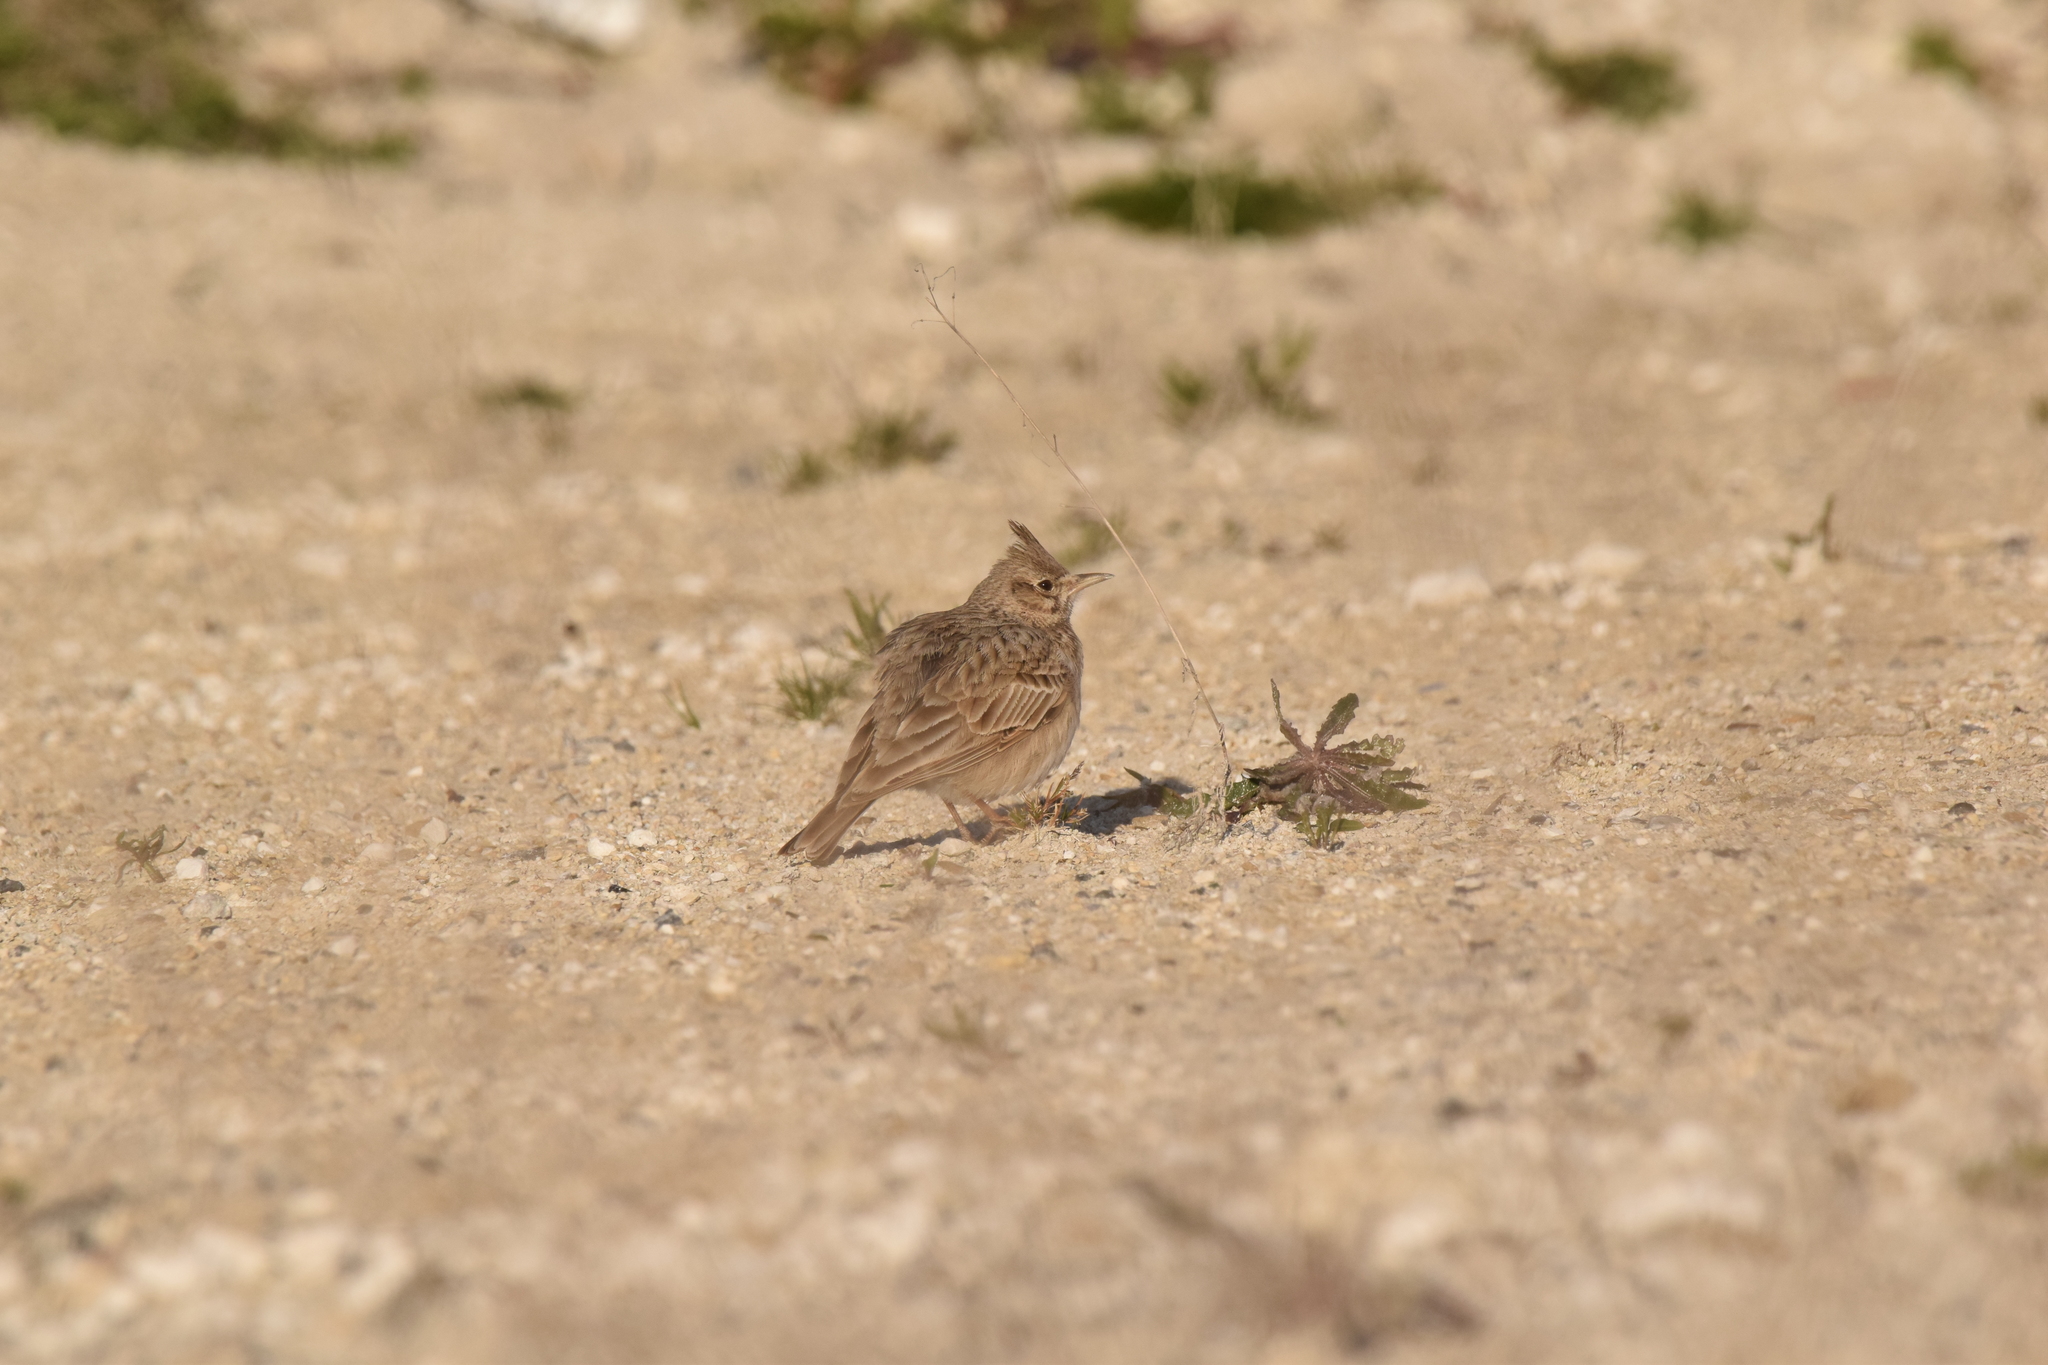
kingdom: Animalia
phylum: Chordata
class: Aves
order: Passeriformes
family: Alaudidae
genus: Galerida
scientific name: Galerida cristata
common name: Crested lark
